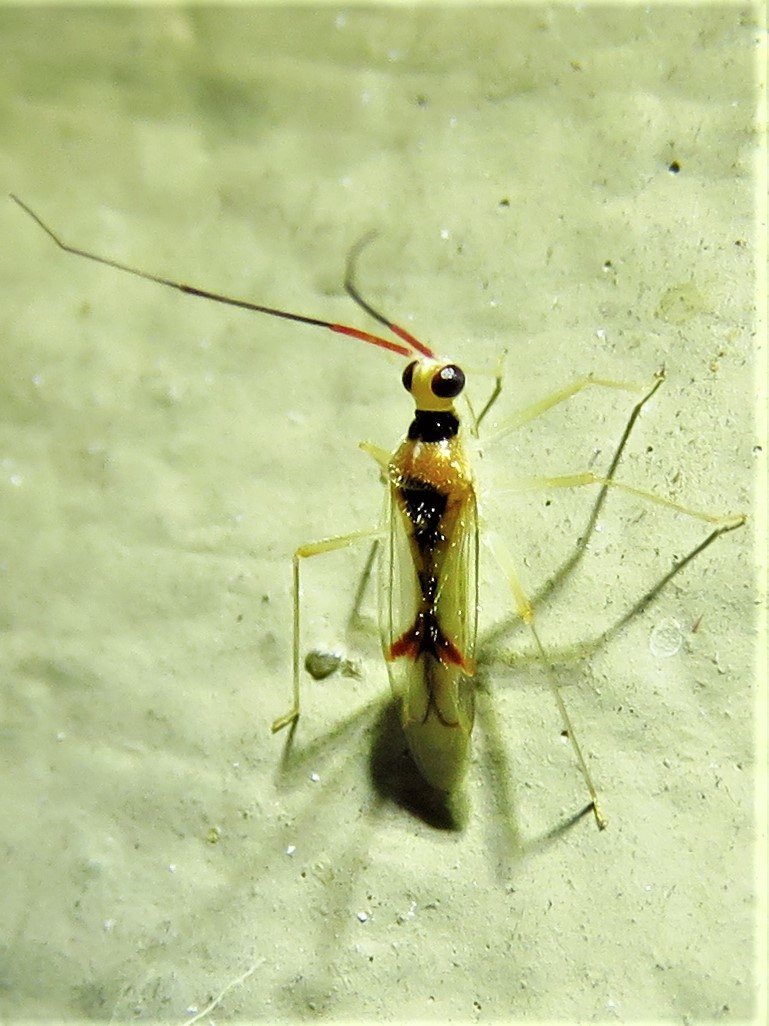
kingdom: Animalia
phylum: Arthropoda
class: Insecta
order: Hemiptera
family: Miridae
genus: Hyaliodes
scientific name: Hyaliodes harti
